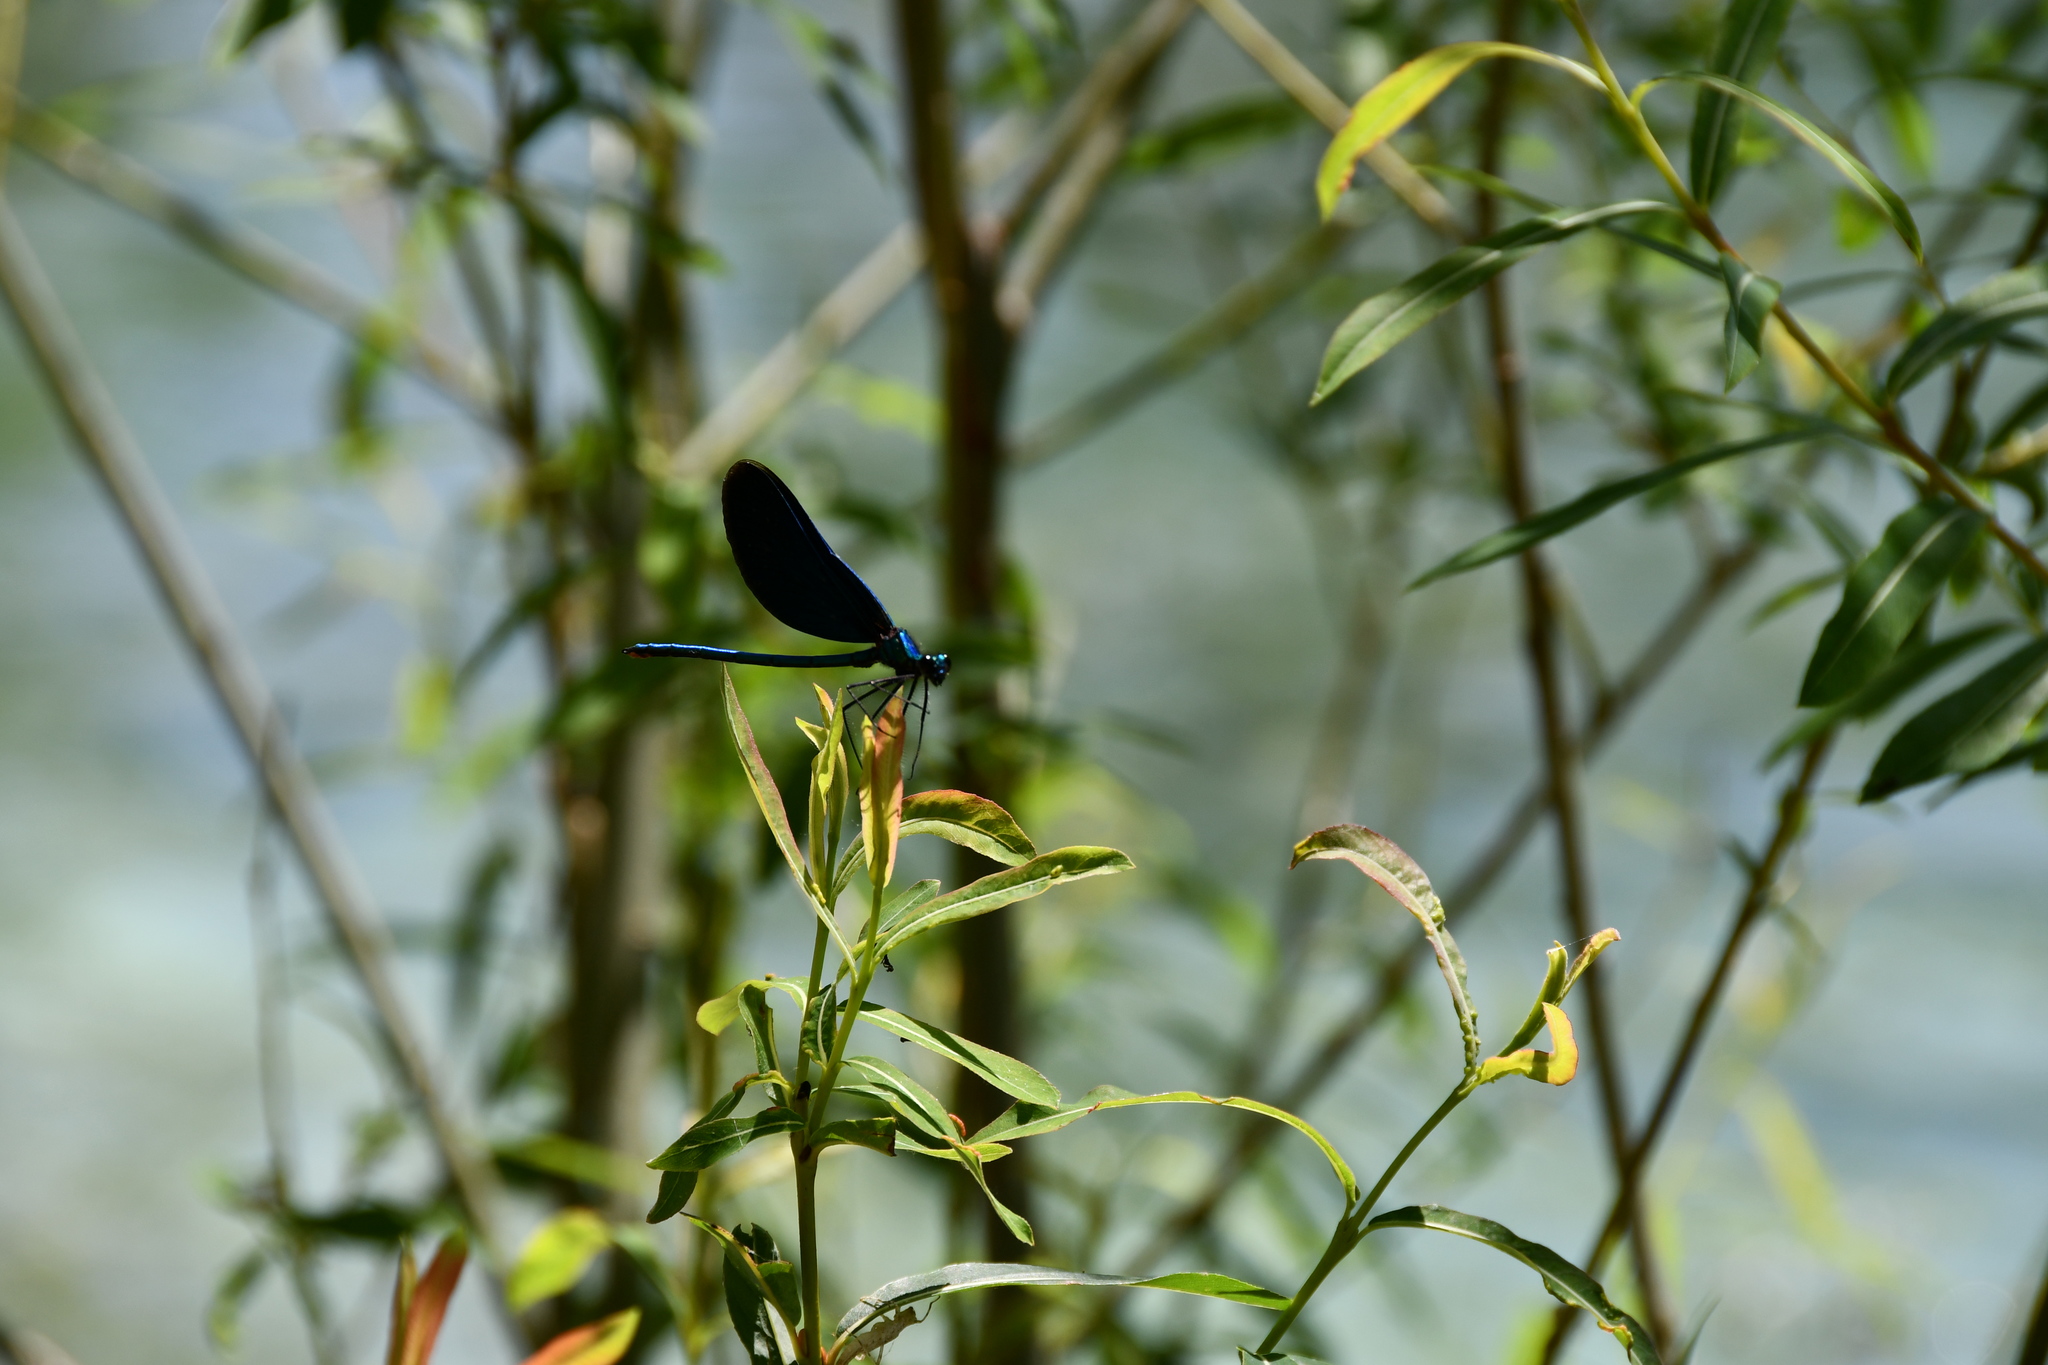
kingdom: Animalia
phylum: Arthropoda
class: Insecta
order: Odonata
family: Calopterygidae
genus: Calopteryx
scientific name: Calopteryx virgo
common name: Beautiful demoiselle
